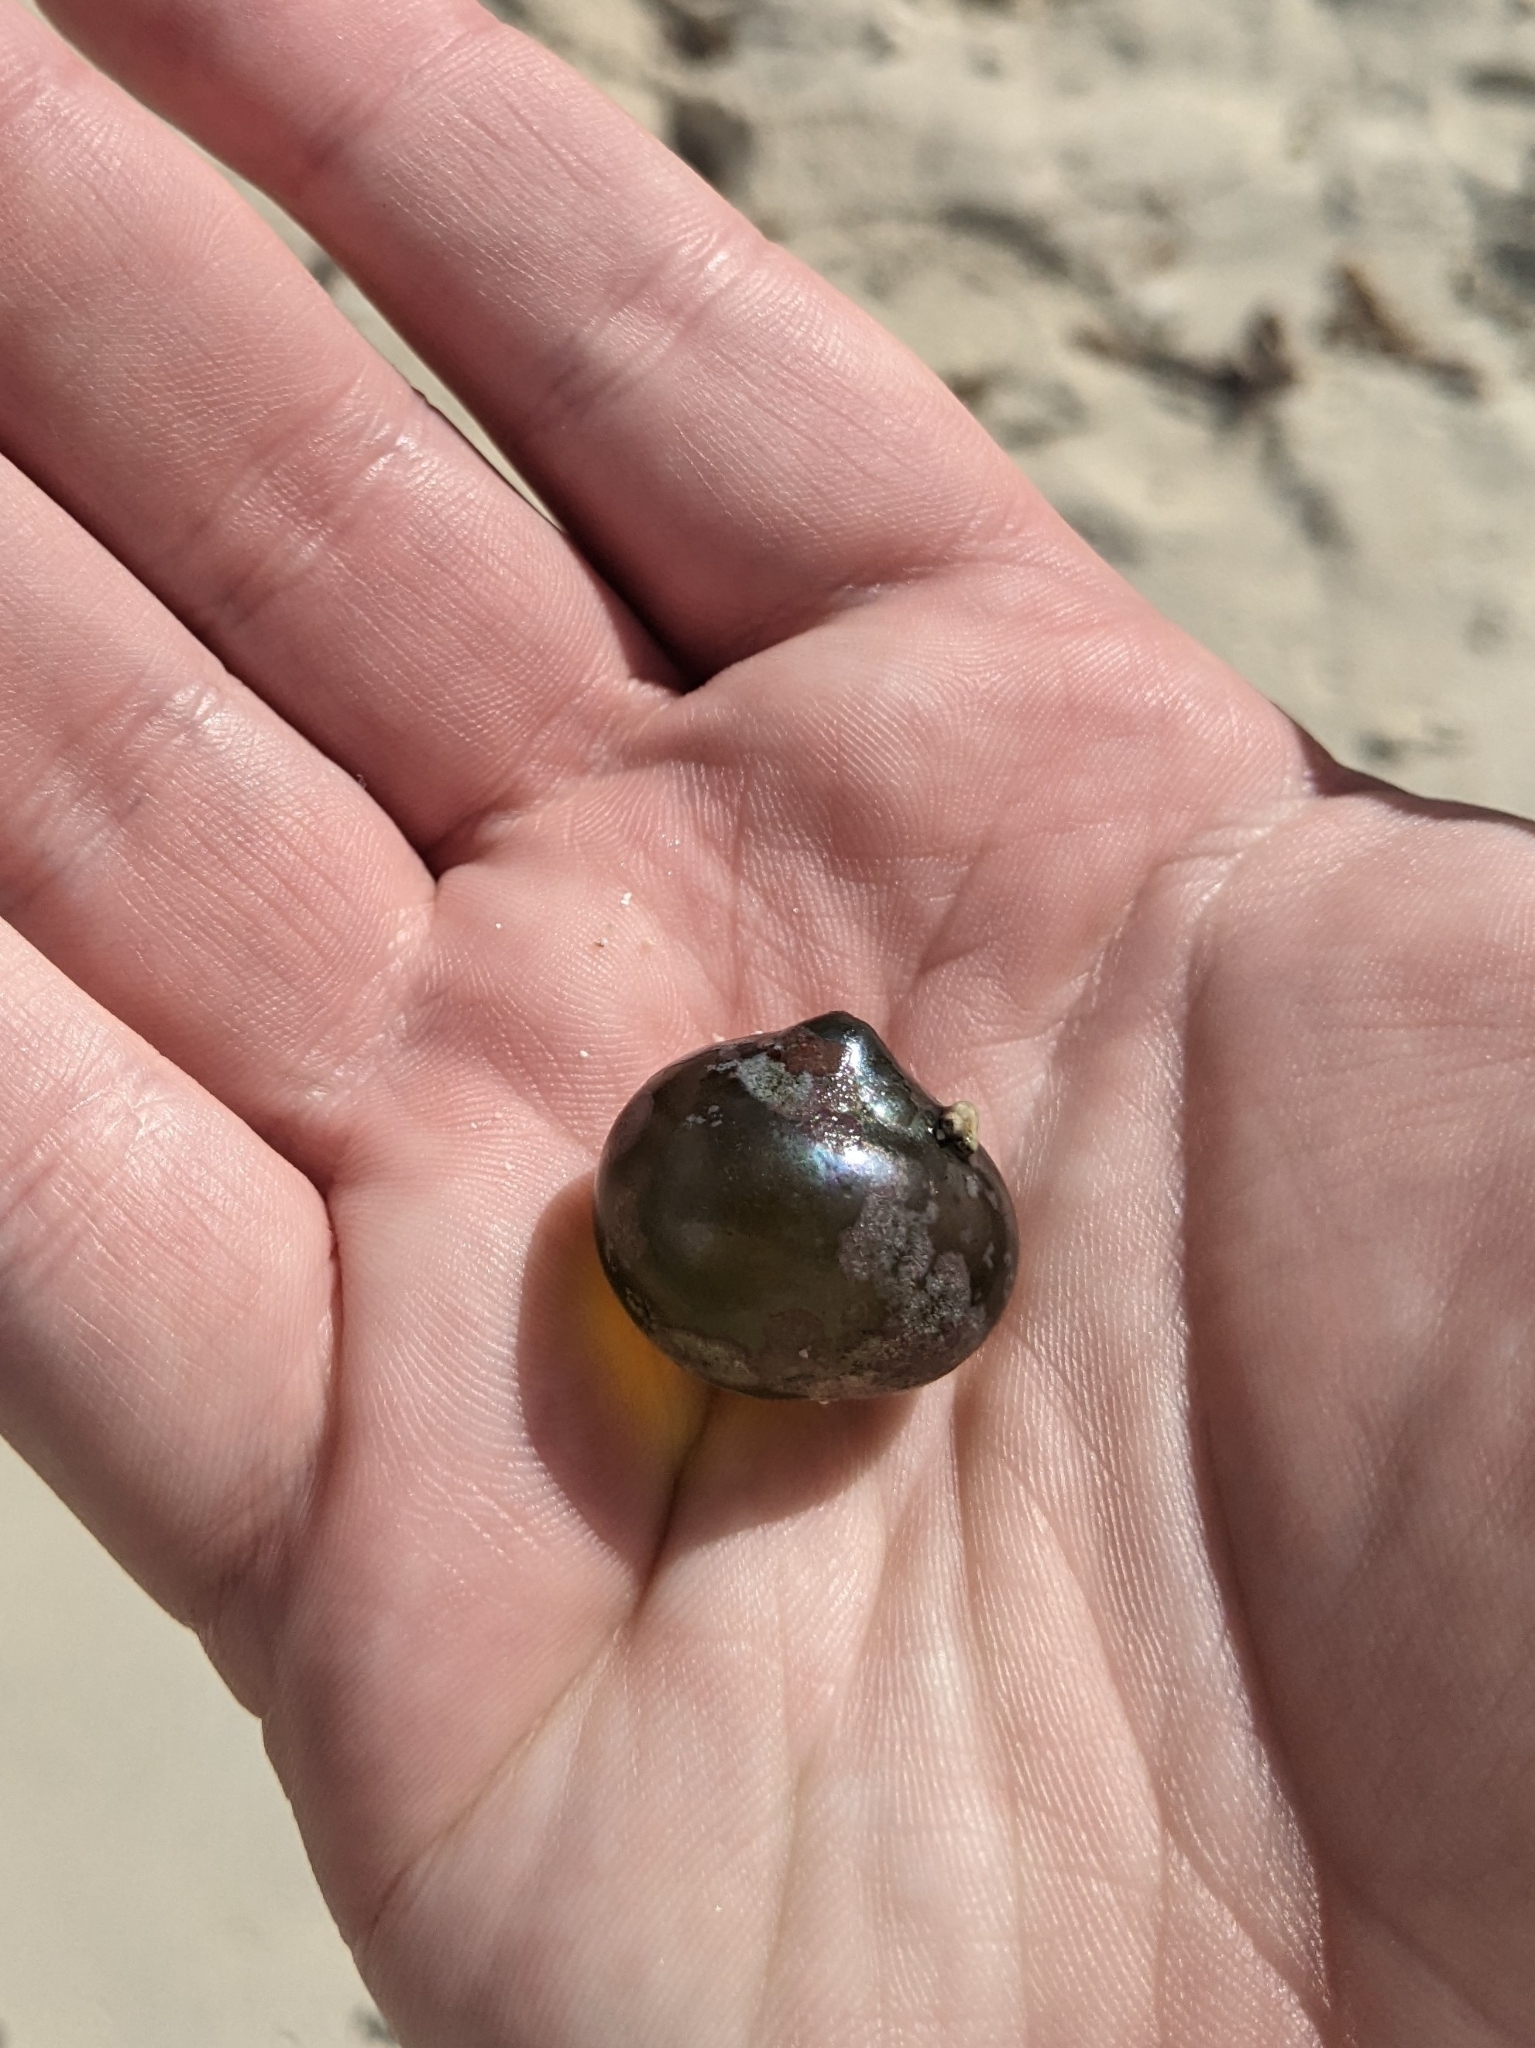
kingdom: Plantae
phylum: Chlorophyta
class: Ulvophyceae
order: Siphonocladales
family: Valoniaceae
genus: Valonia
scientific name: Valonia ventricosa
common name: Sea pearl
